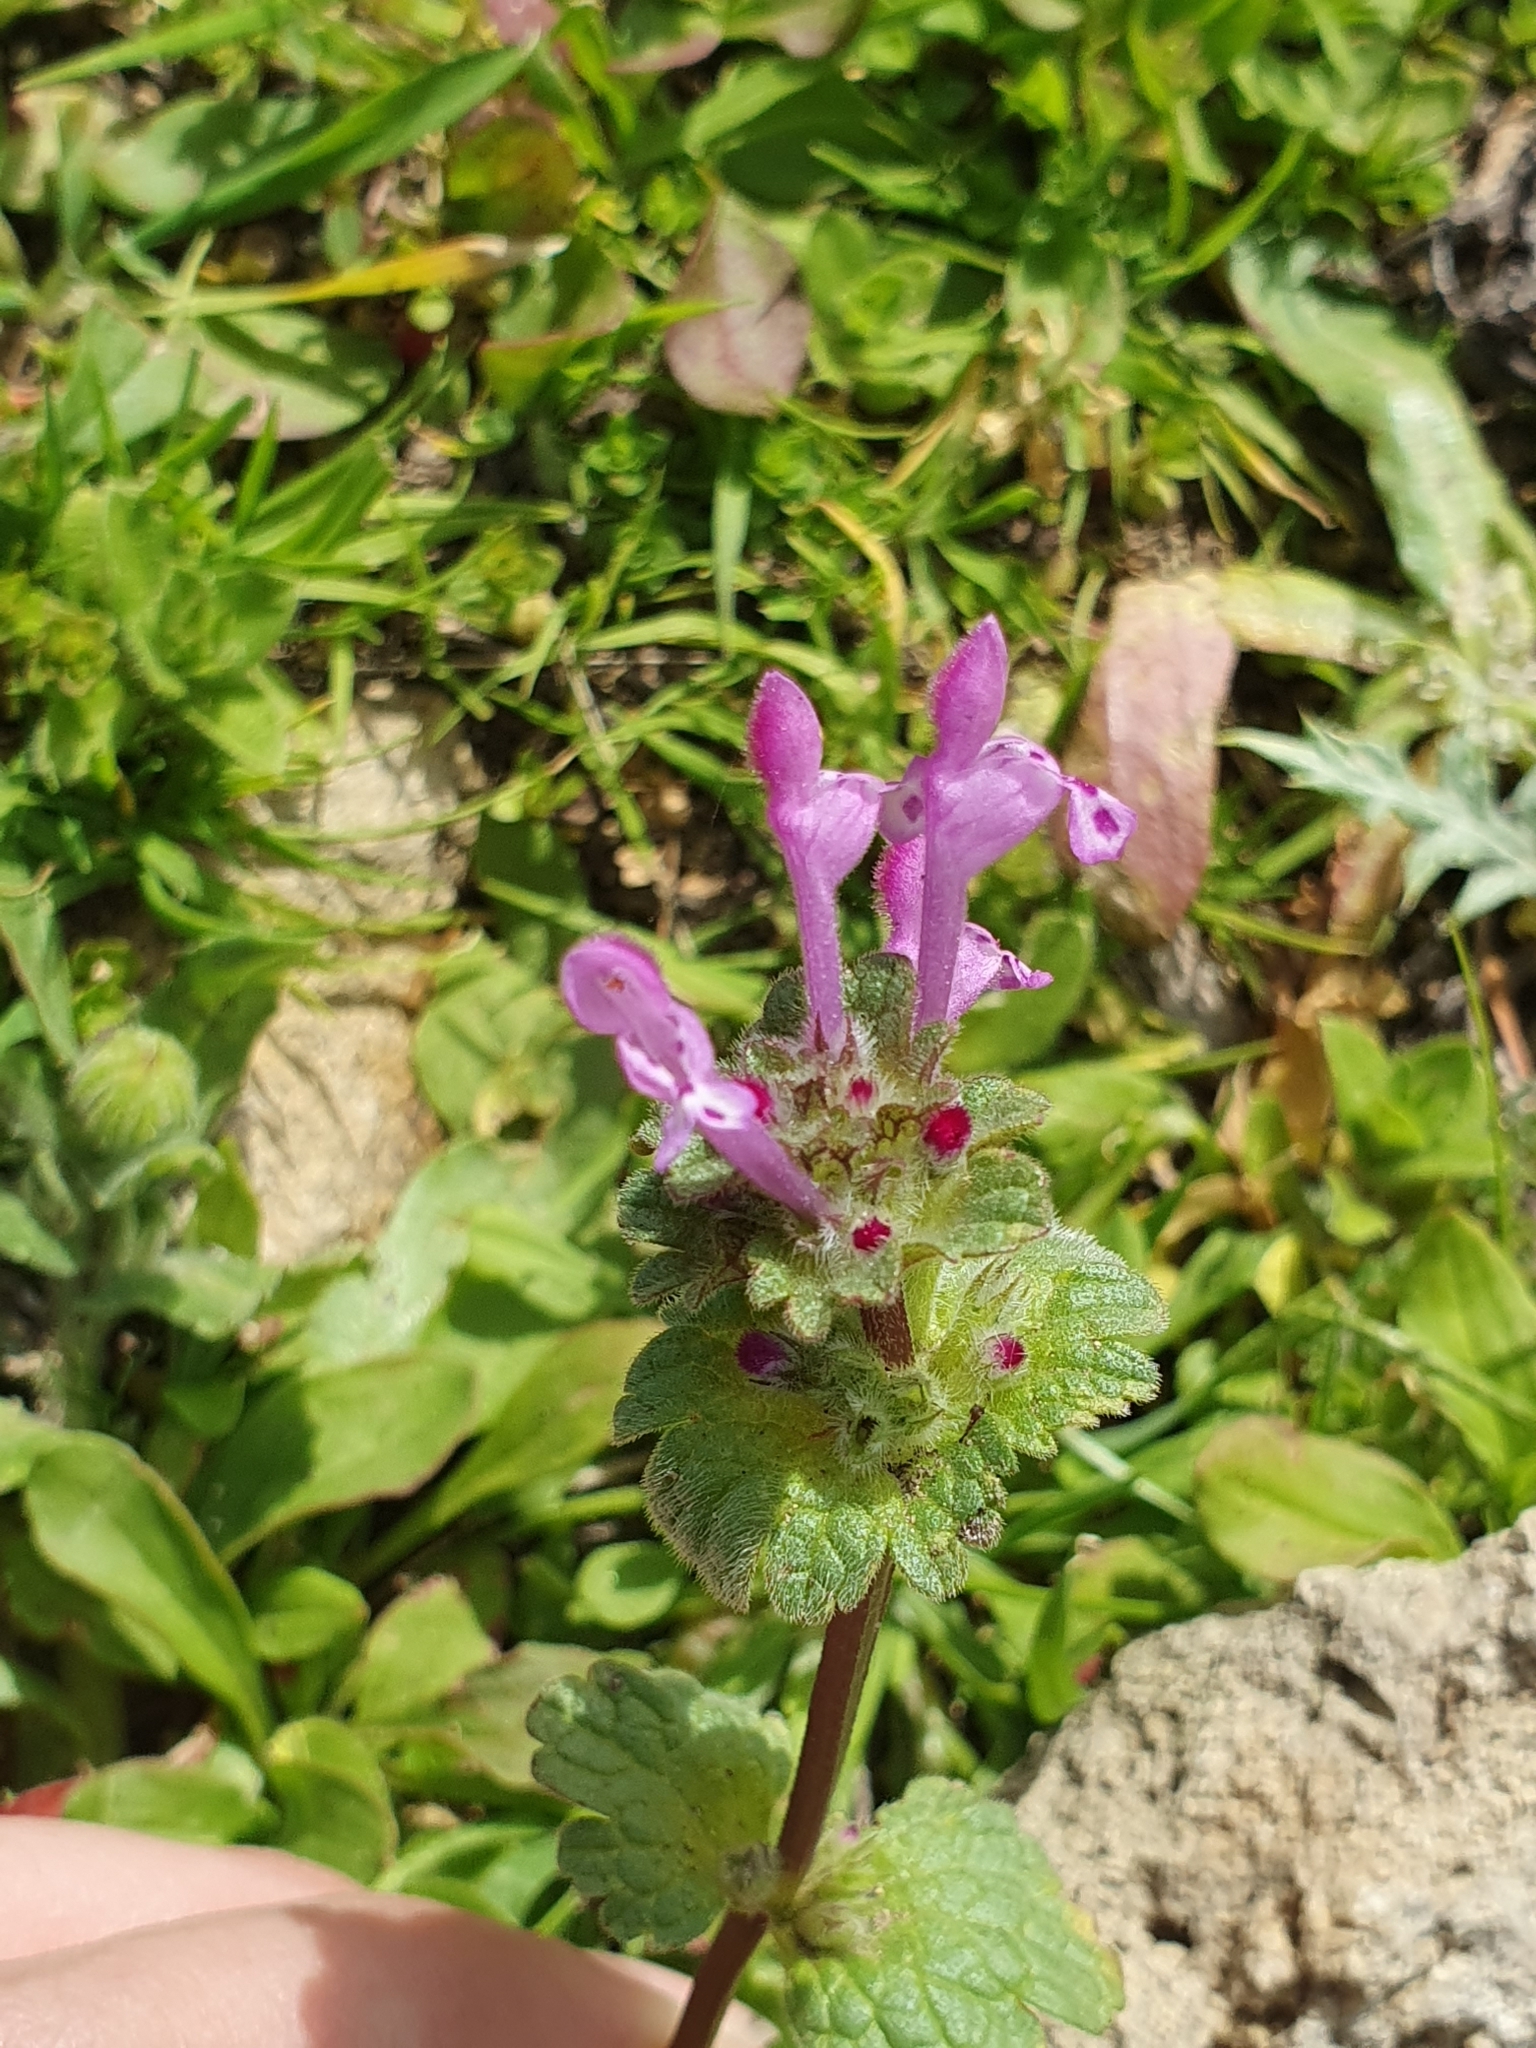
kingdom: Plantae
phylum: Tracheophyta
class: Magnoliopsida
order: Lamiales
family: Lamiaceae
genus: Lamium
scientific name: Lamium amplexicaule
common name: Henbit dead-nettle
